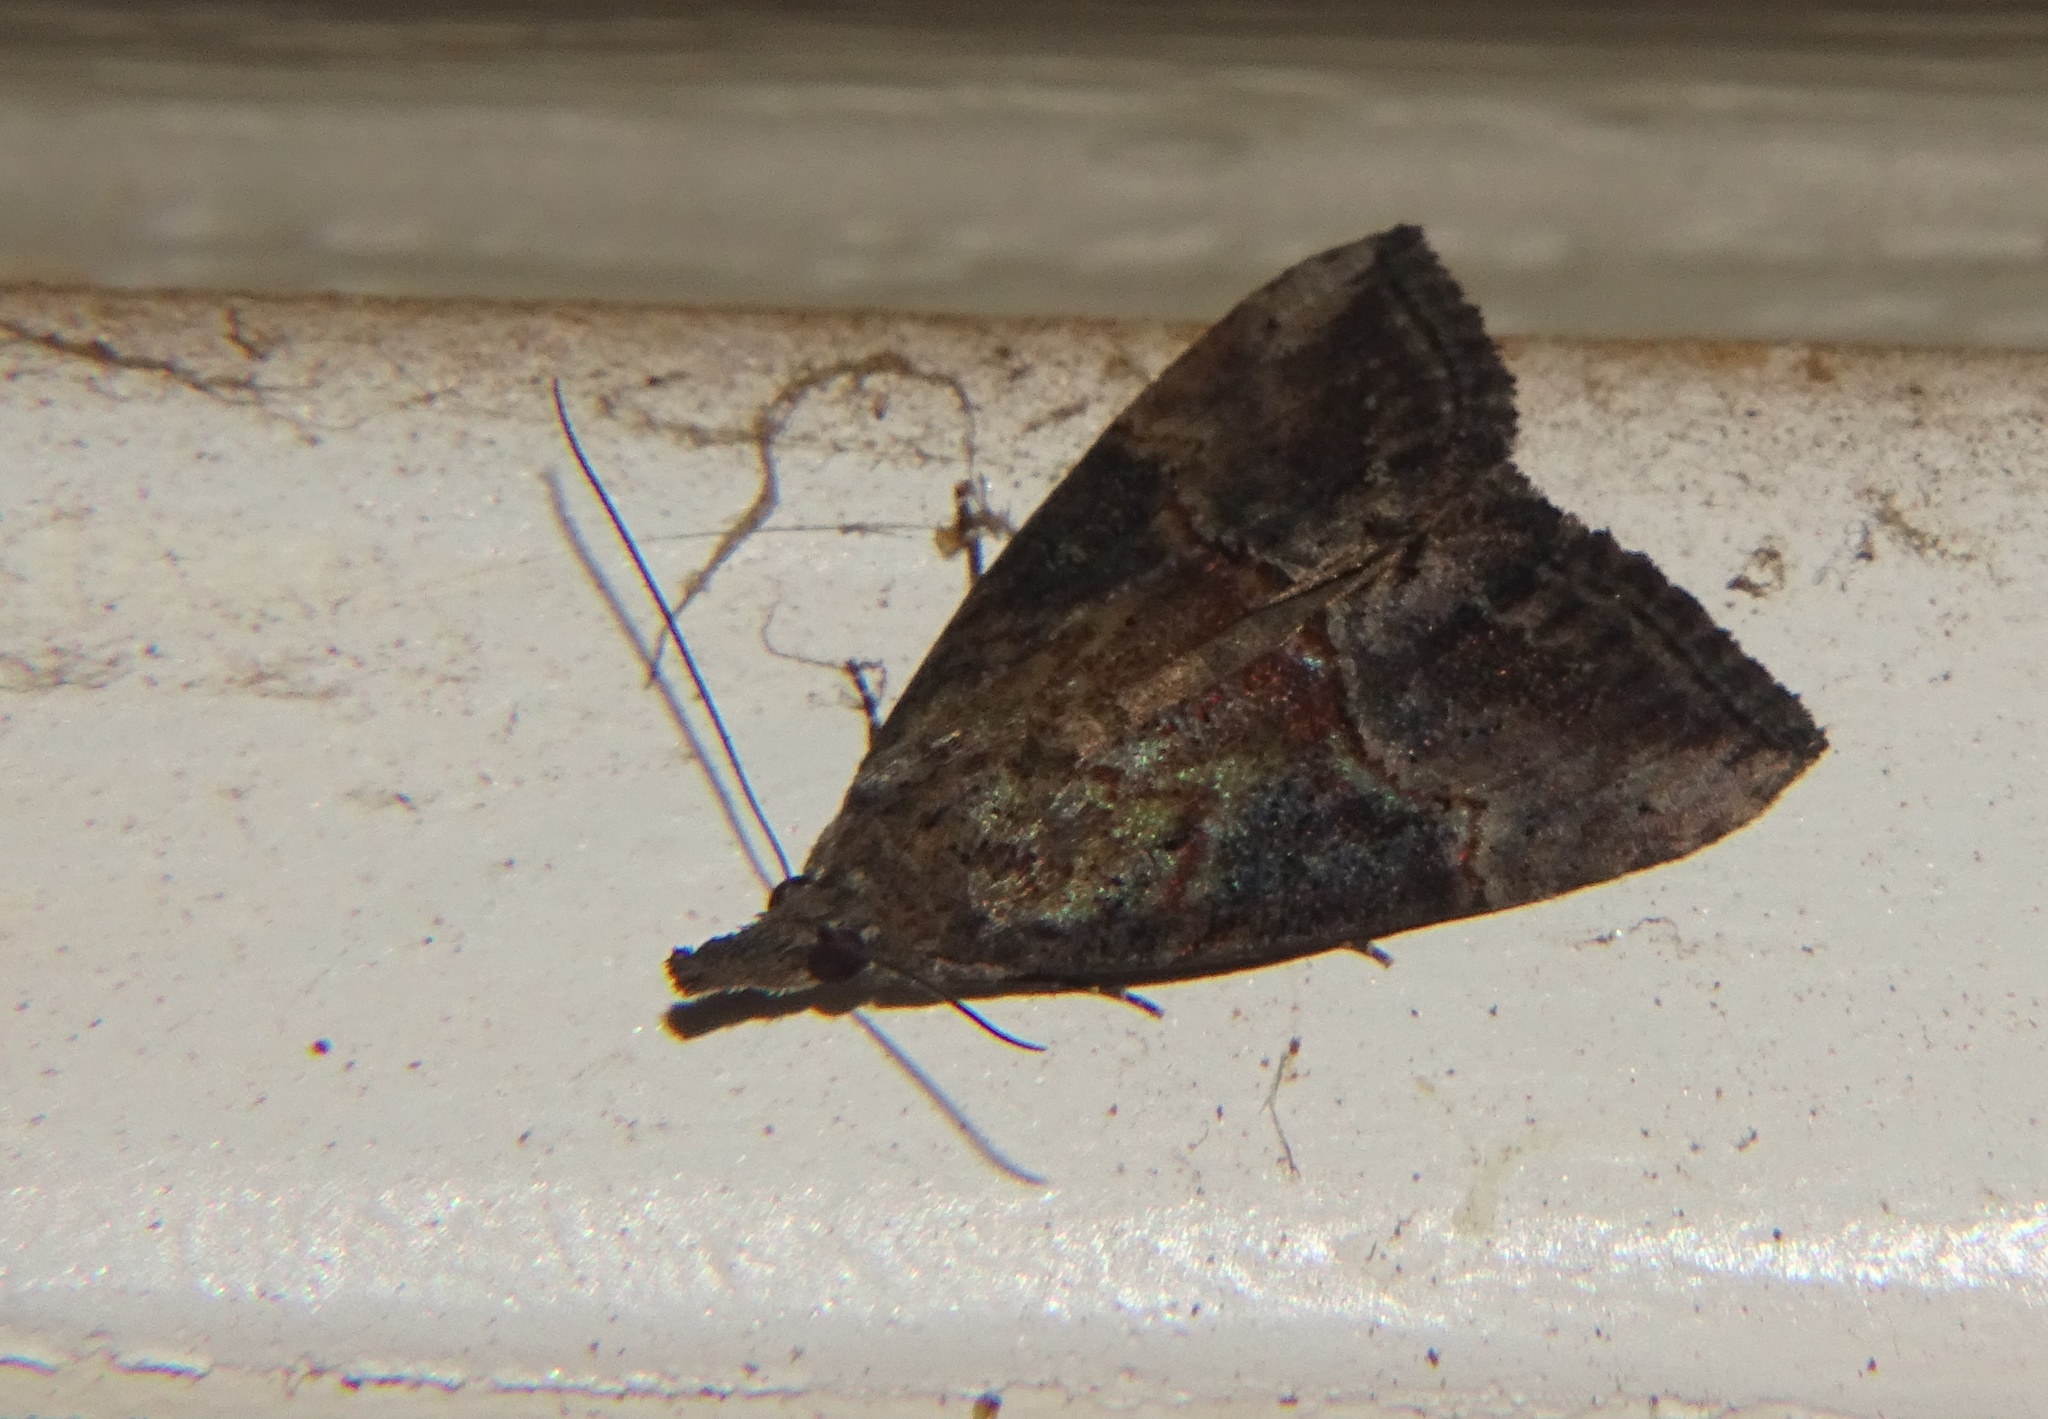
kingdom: Animalia
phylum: Arthropoda
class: Insecta
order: Lepidoptera
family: Erebidae
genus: Hypena
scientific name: Hypena scabra
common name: Green cloverworm
